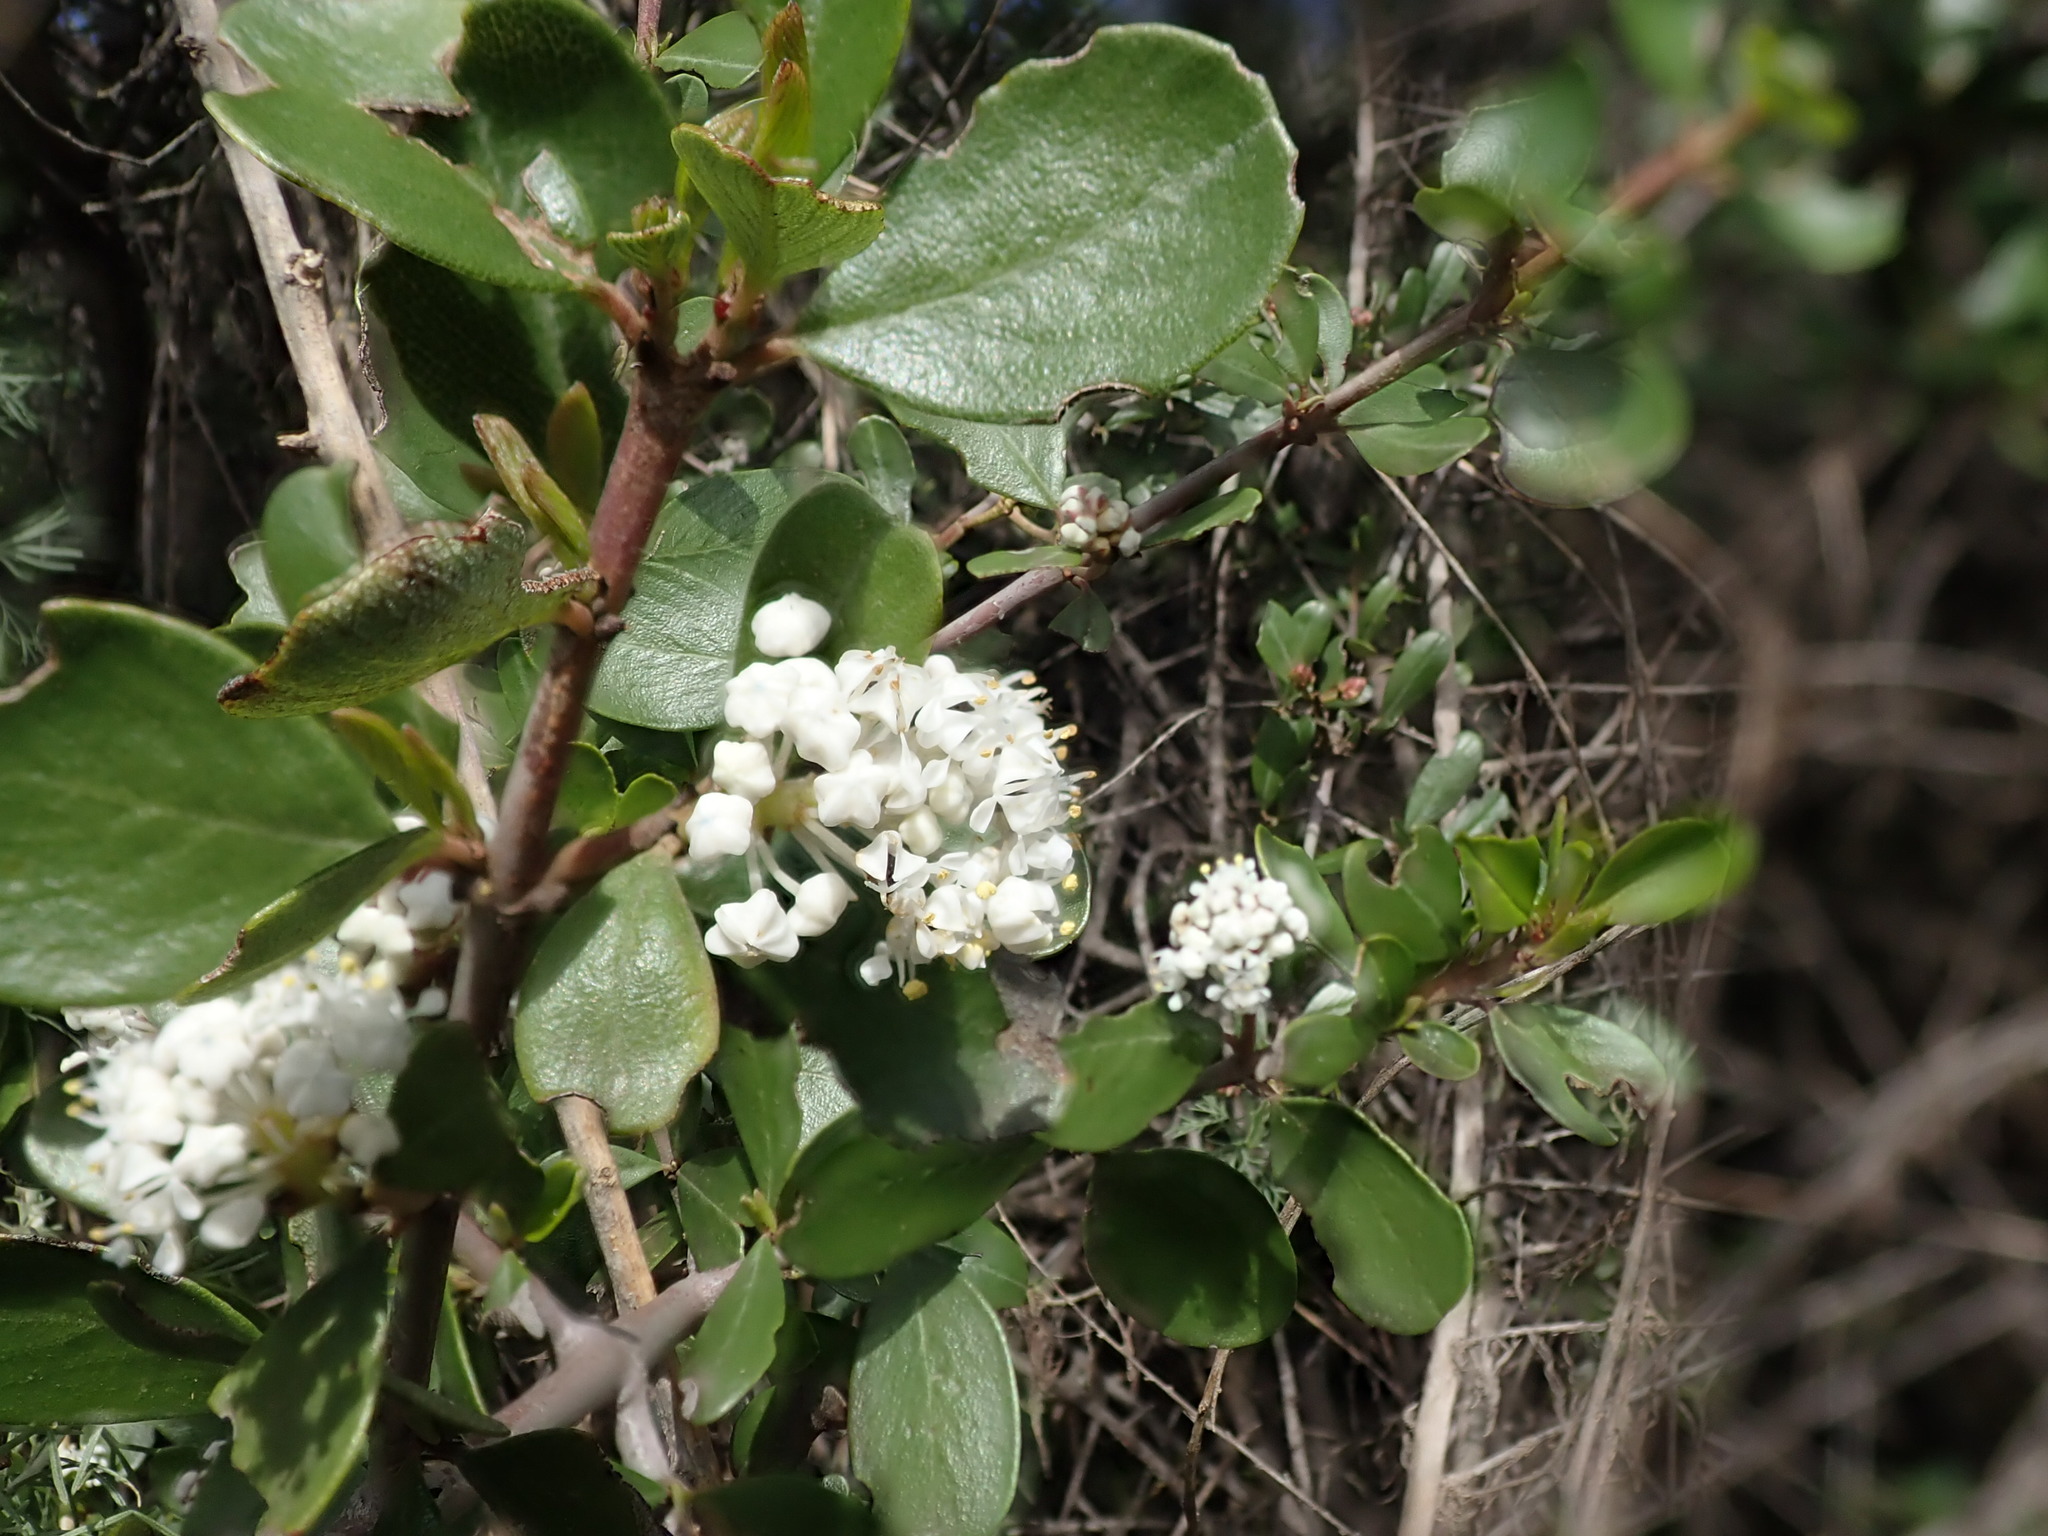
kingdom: Plantae
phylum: Tracheophyta
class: Magnoliopsida
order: Rosales
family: Rhamnaceae
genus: Ceanothus
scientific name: Ceanothus cuneatus
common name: Cuneate ceanothus
